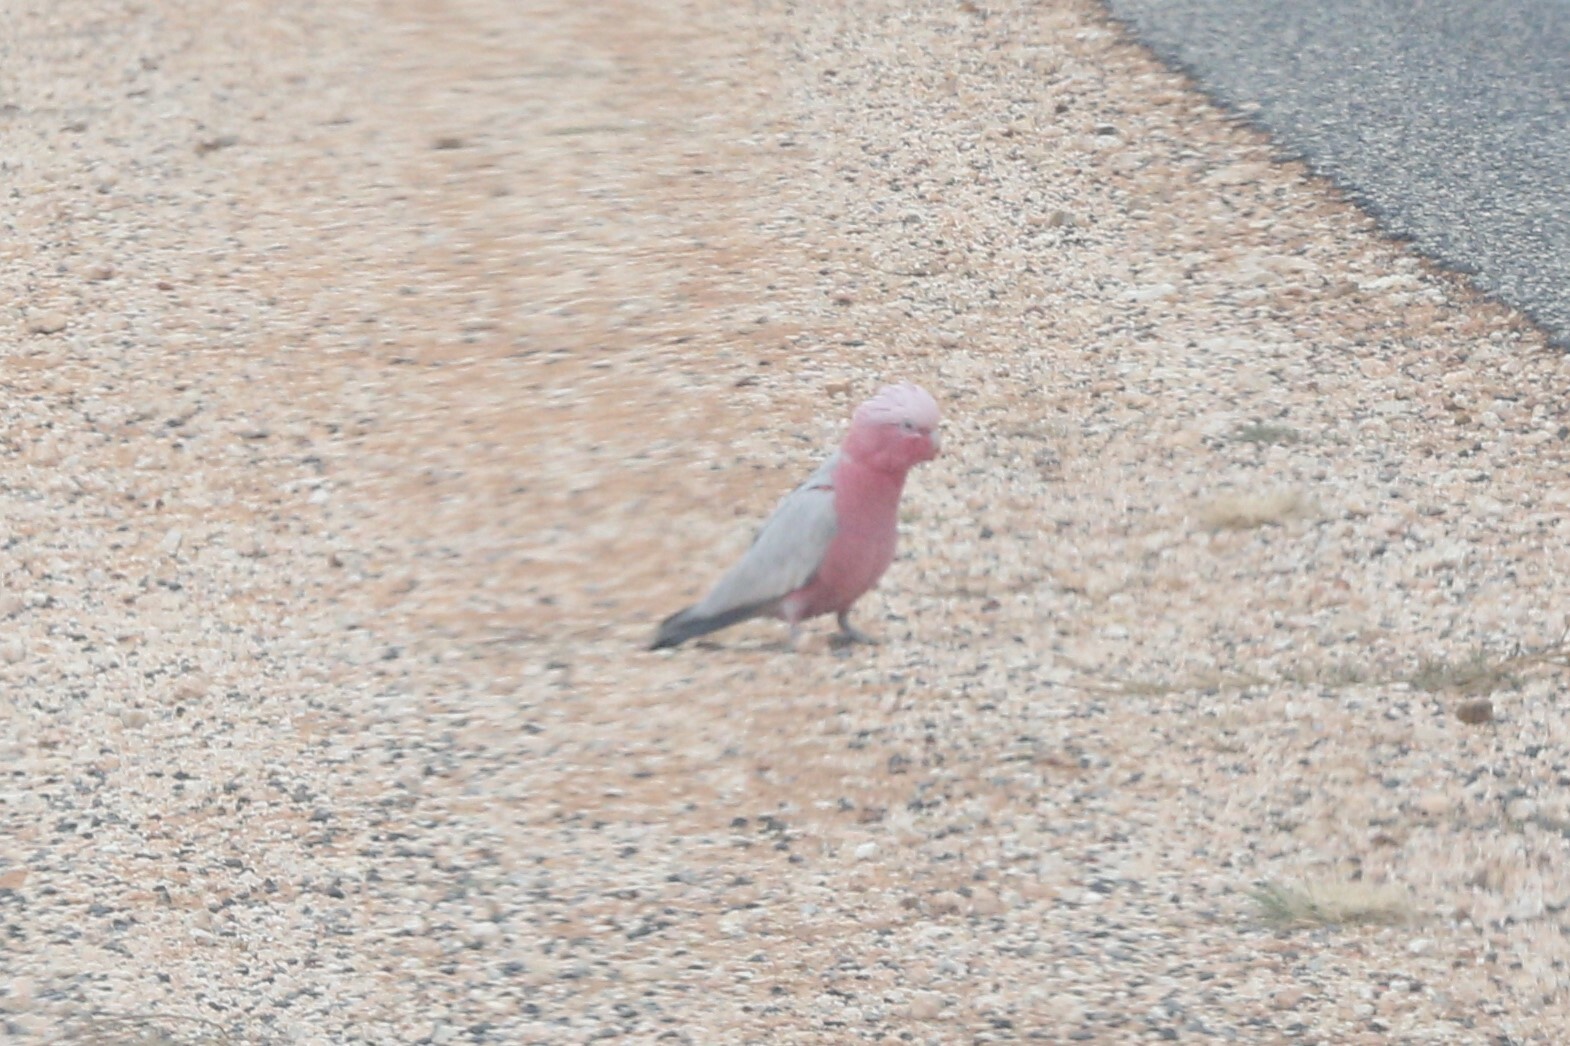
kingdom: Animalia
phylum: Chordata
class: Aves
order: Psittaciformes
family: Psittacidae
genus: Eolophus
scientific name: Eolophus roseicapilla
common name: Galah
